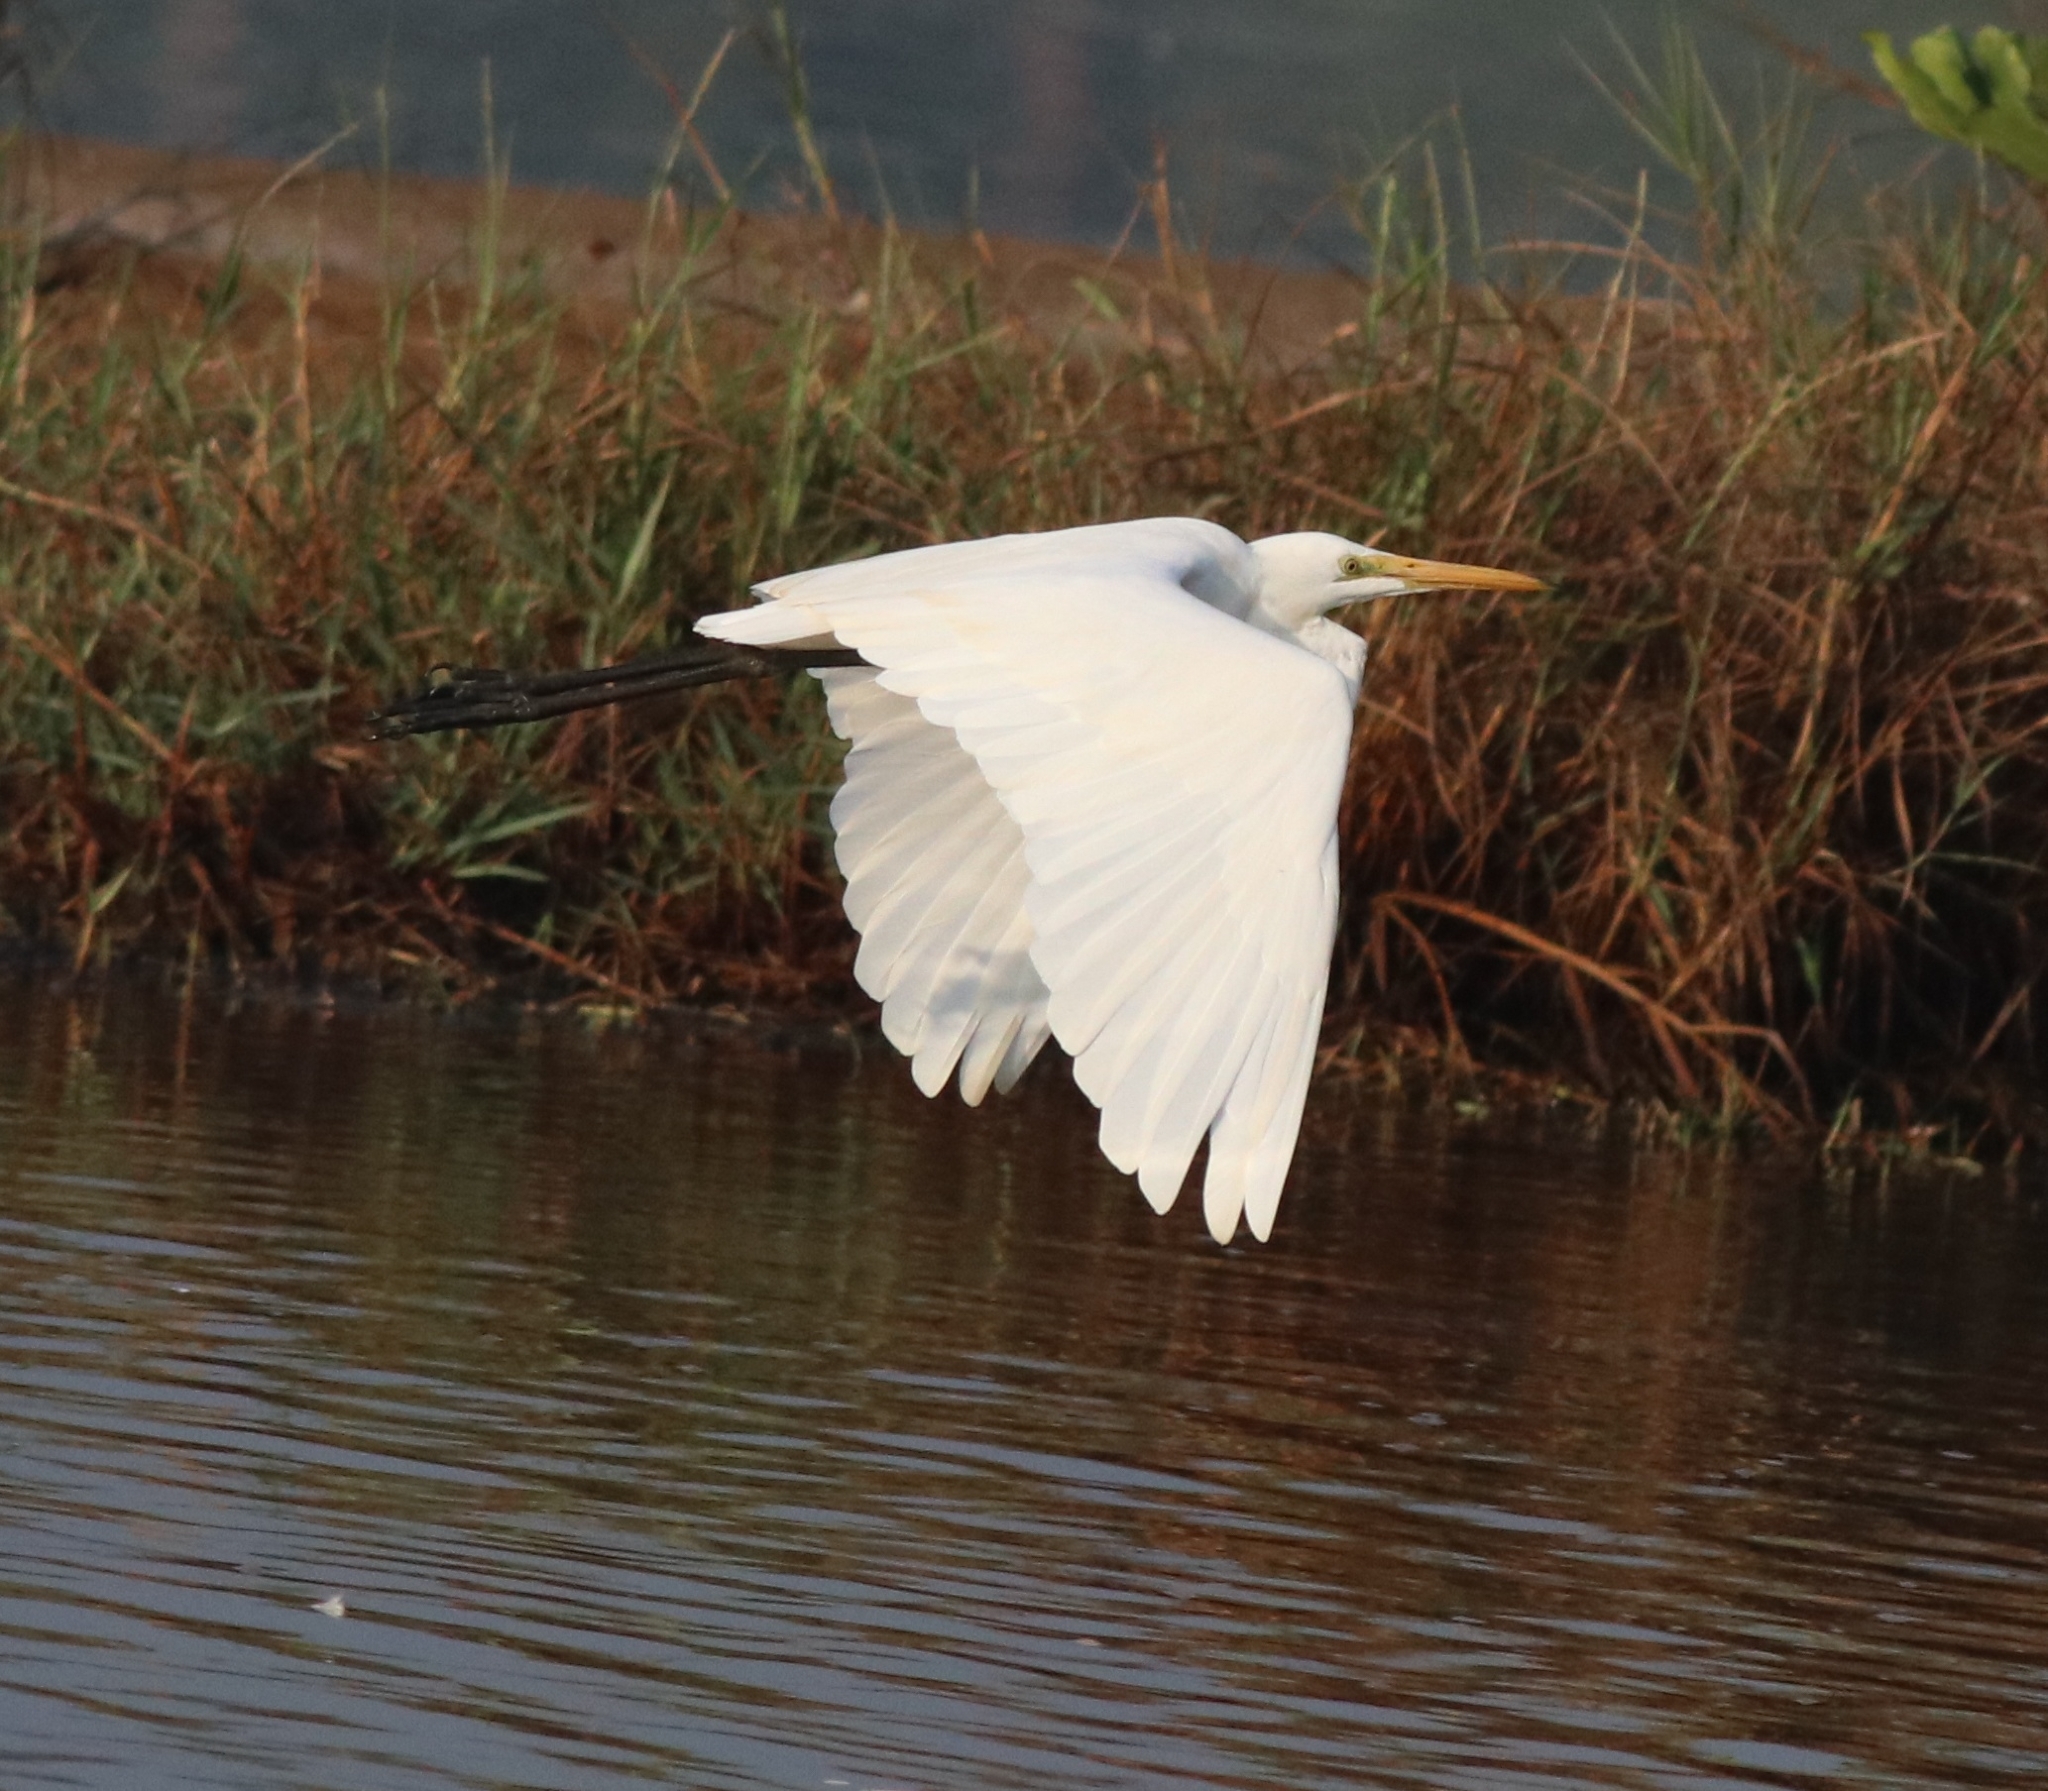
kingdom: Animalia
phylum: Chordata
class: Aves
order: Pelecaniformes
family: Ardeidae
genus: Ardea
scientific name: Ardea alba
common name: Great egret
